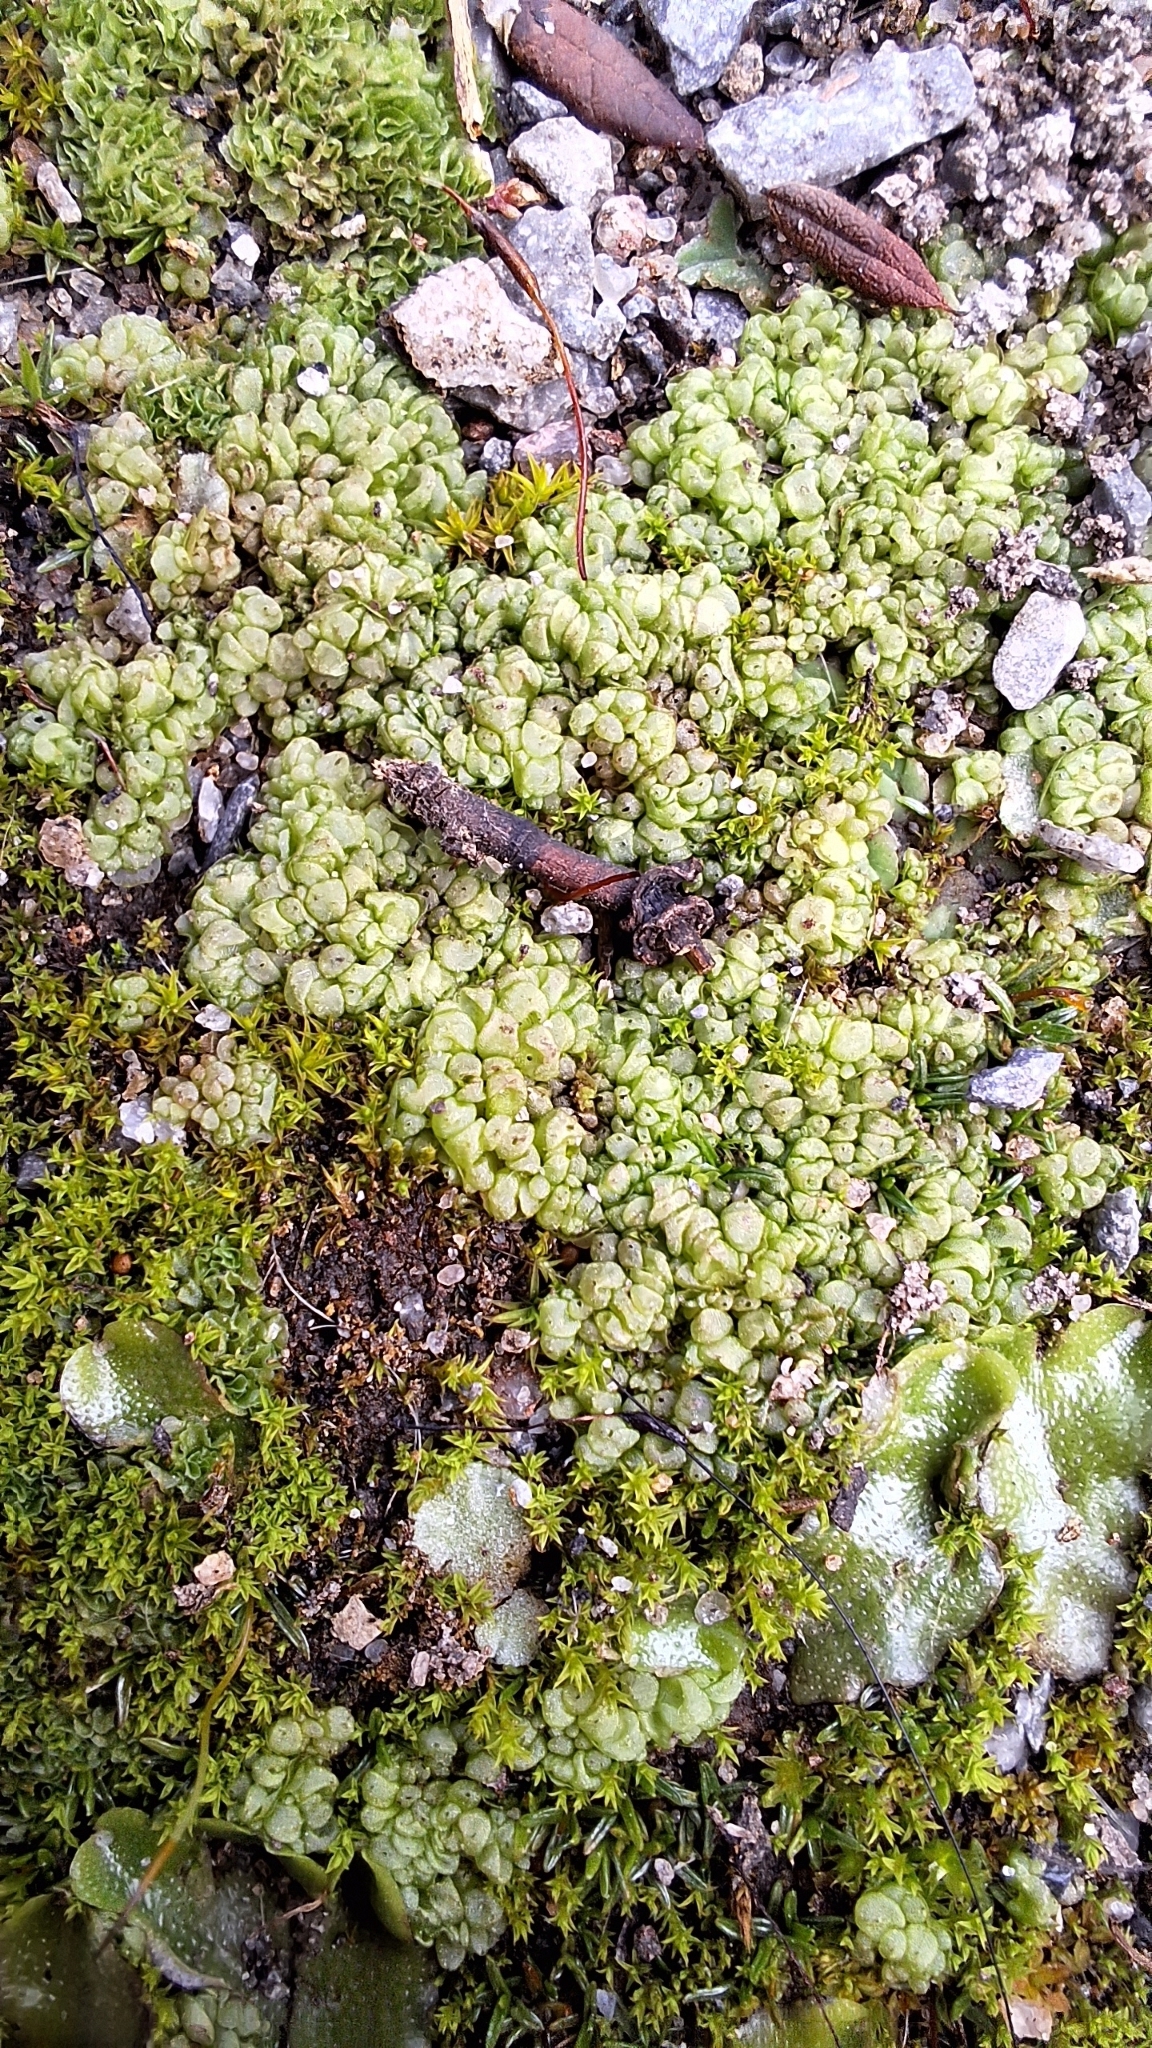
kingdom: Plantae
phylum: Marchantiophyta
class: Marchantiopsida
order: Sphaerocarpales
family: Sphaerocarpaceae
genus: Sphaerocarpos
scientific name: Sphaerocarpos texanus
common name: Texas balloonwort
